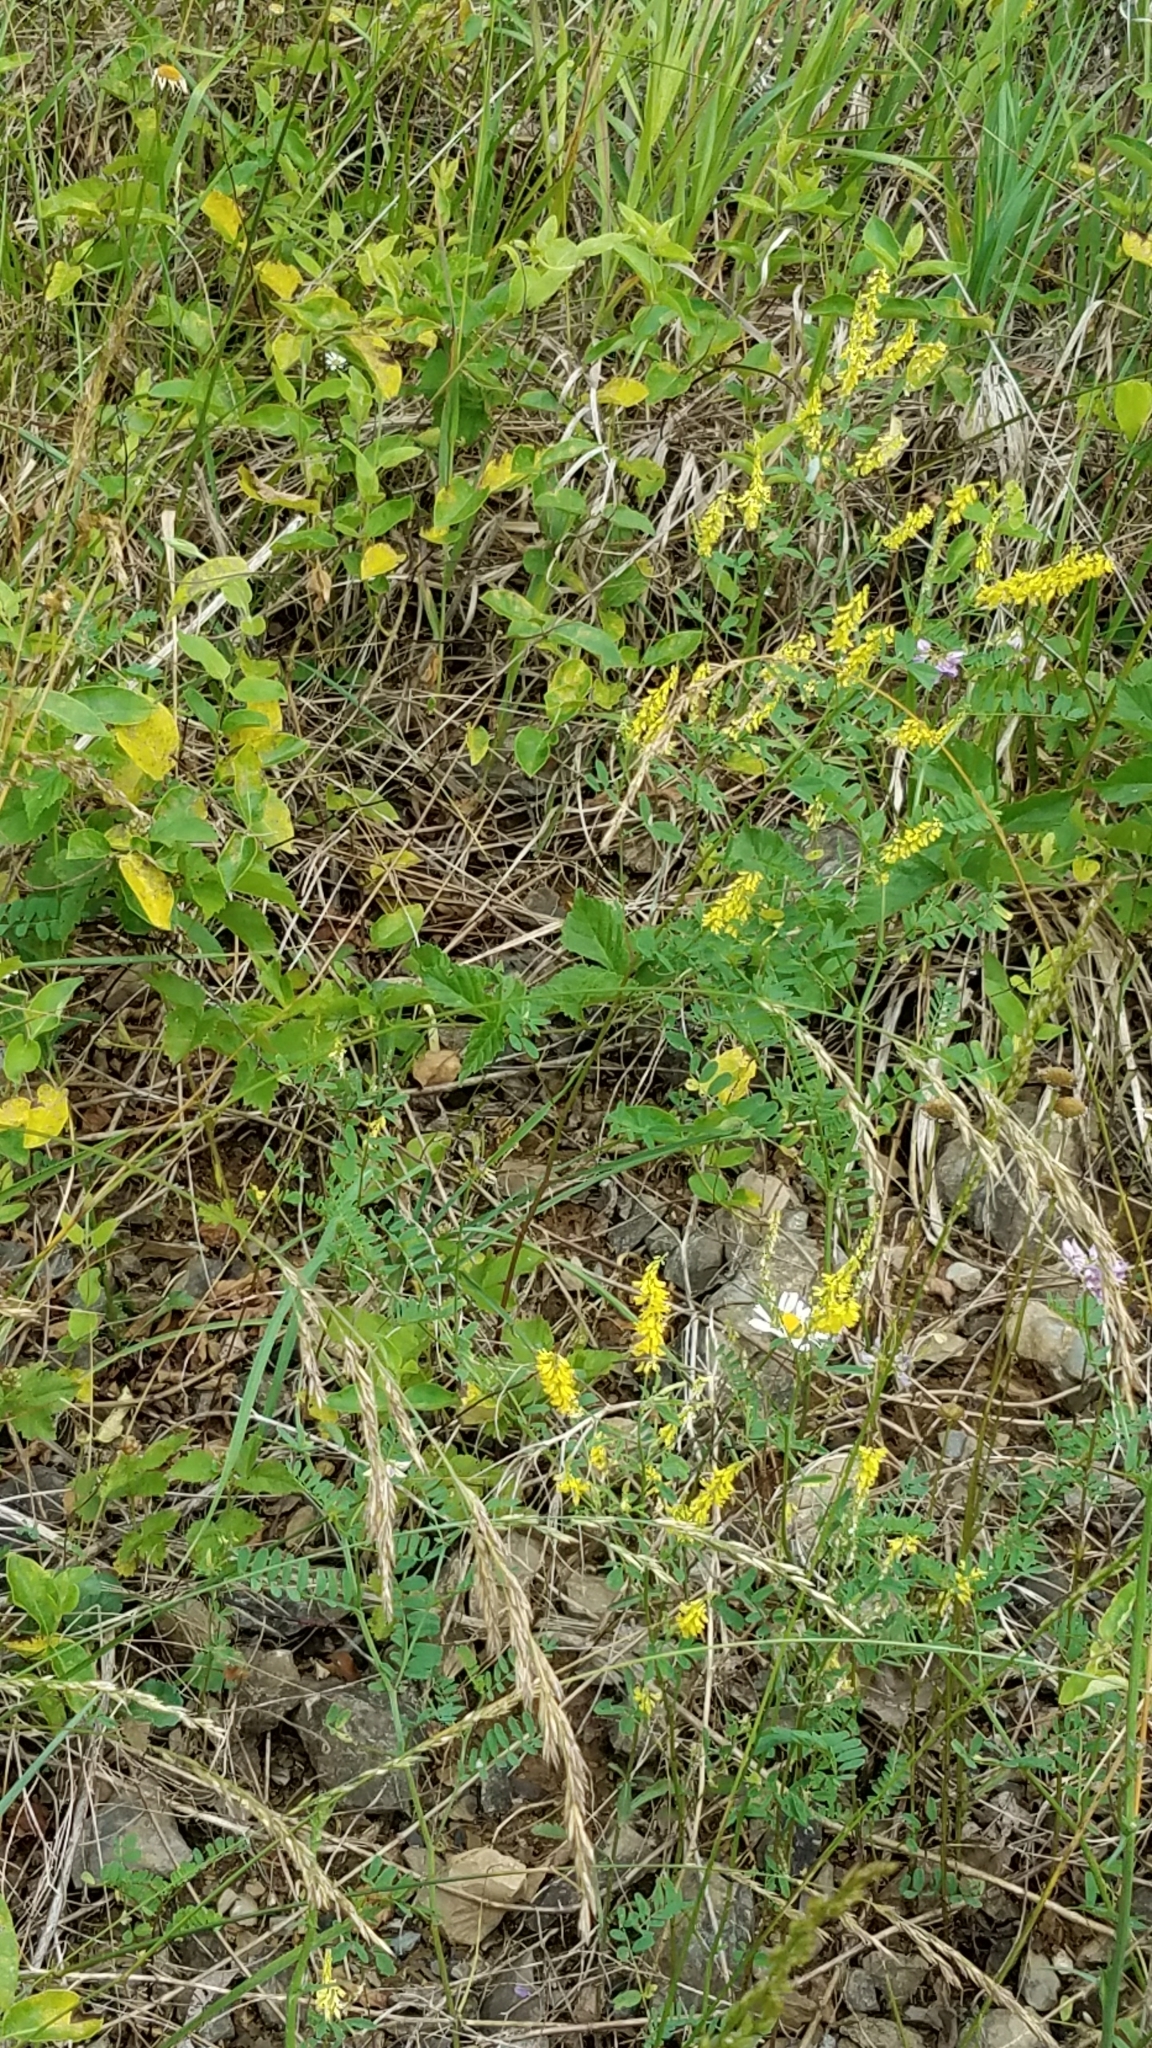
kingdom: Plantae
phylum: Tracheophyta
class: Magnoliopsida
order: Fabales
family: Fabaceae
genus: Melilotus
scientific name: Melilotus officinalis
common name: Sweetclover
